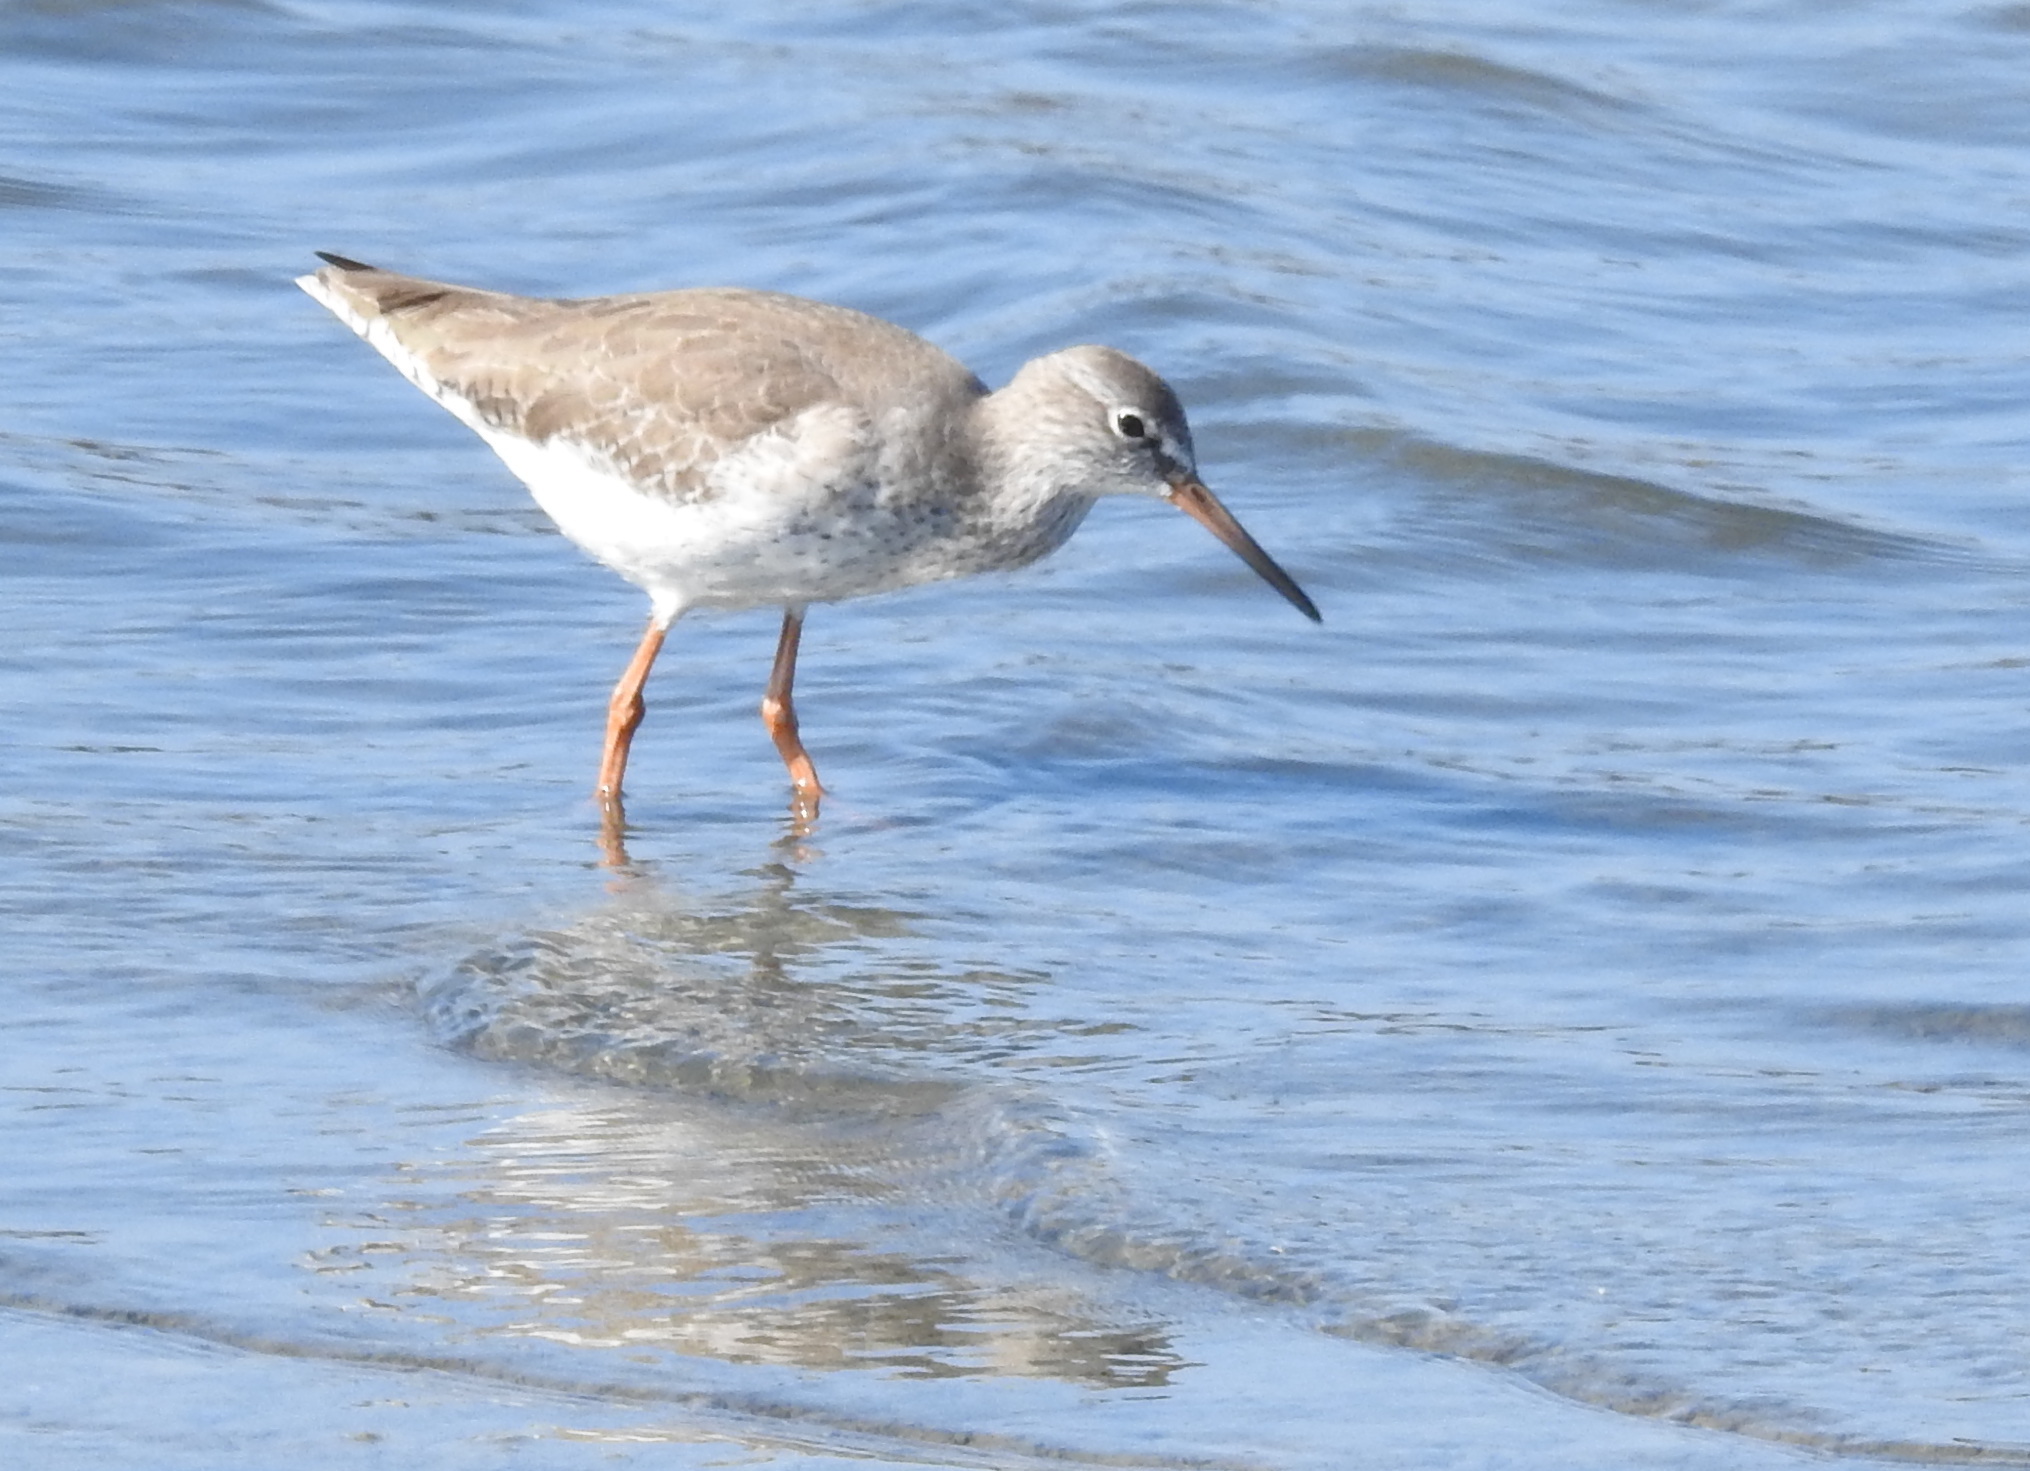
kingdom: Animalia
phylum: Chordata
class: Aves
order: Charadriiformes
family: Scolopacidae
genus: Tringa
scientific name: Tringa totanus
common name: Common redshank
